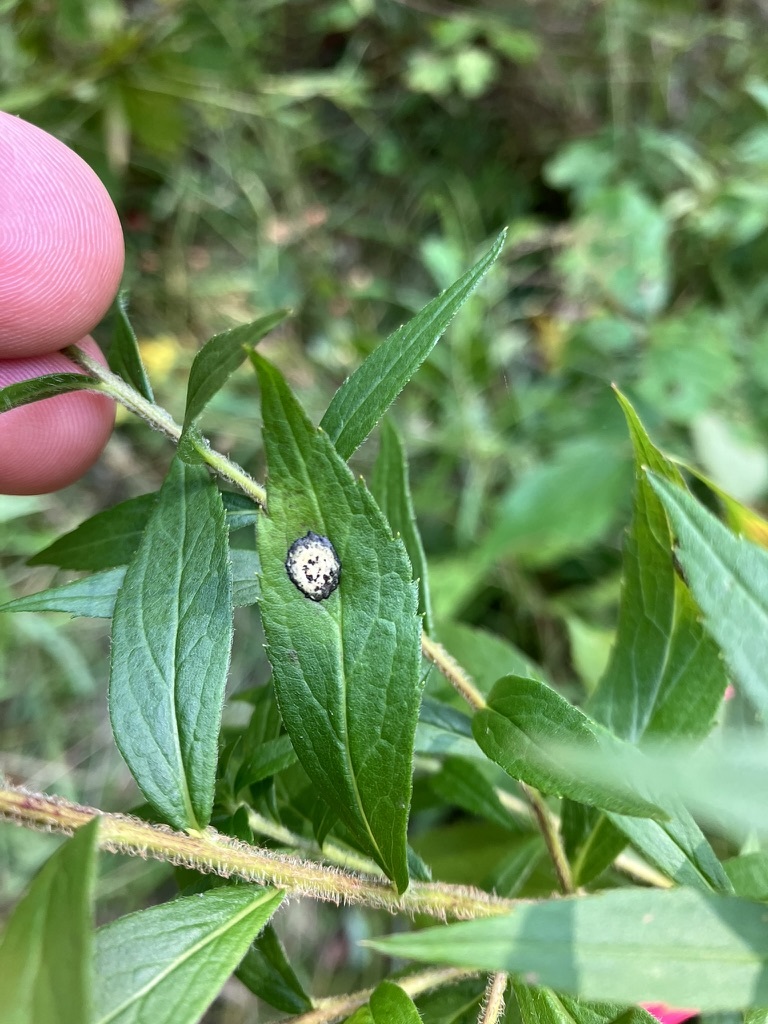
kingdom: Animalia
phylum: Arthropoda
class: Insecta
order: Diptera
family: Cecidomyiidae
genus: Asteromyia
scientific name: Asteromyia carbonifera
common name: Carbonifera goldenrod gall midge
